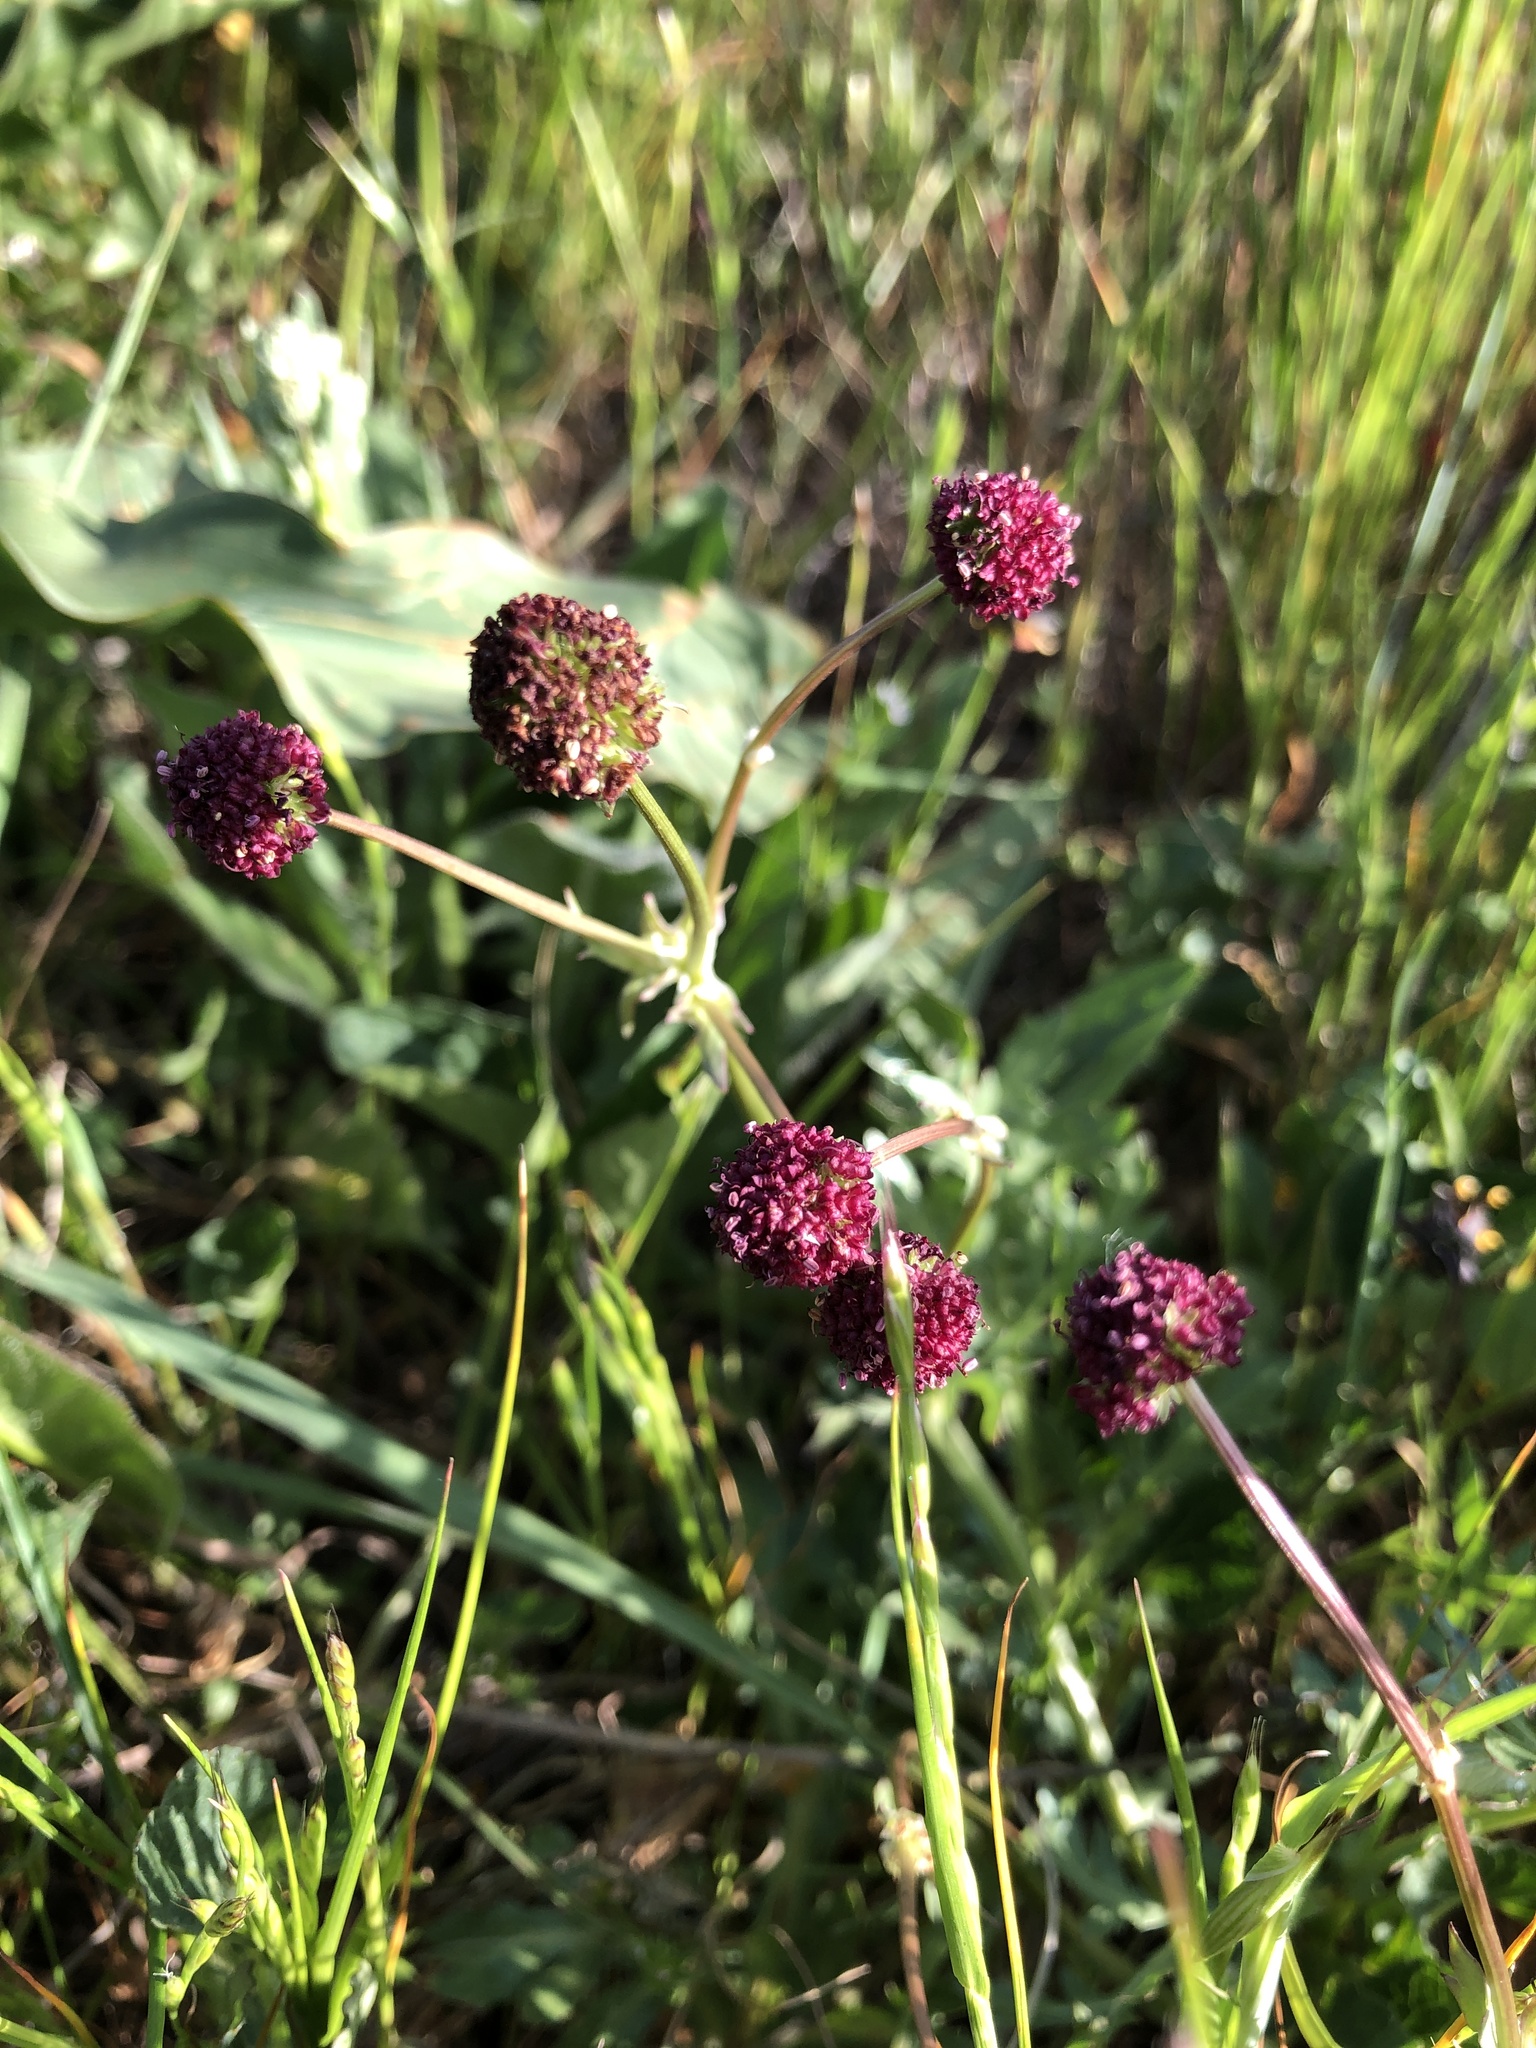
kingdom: Plantae
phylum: Tracheophyta
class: Magnoliopsida
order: Apiales
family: Apiaceae
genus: Sanicula
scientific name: Sanicula bipinnatifida
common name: Shoe-buttons
